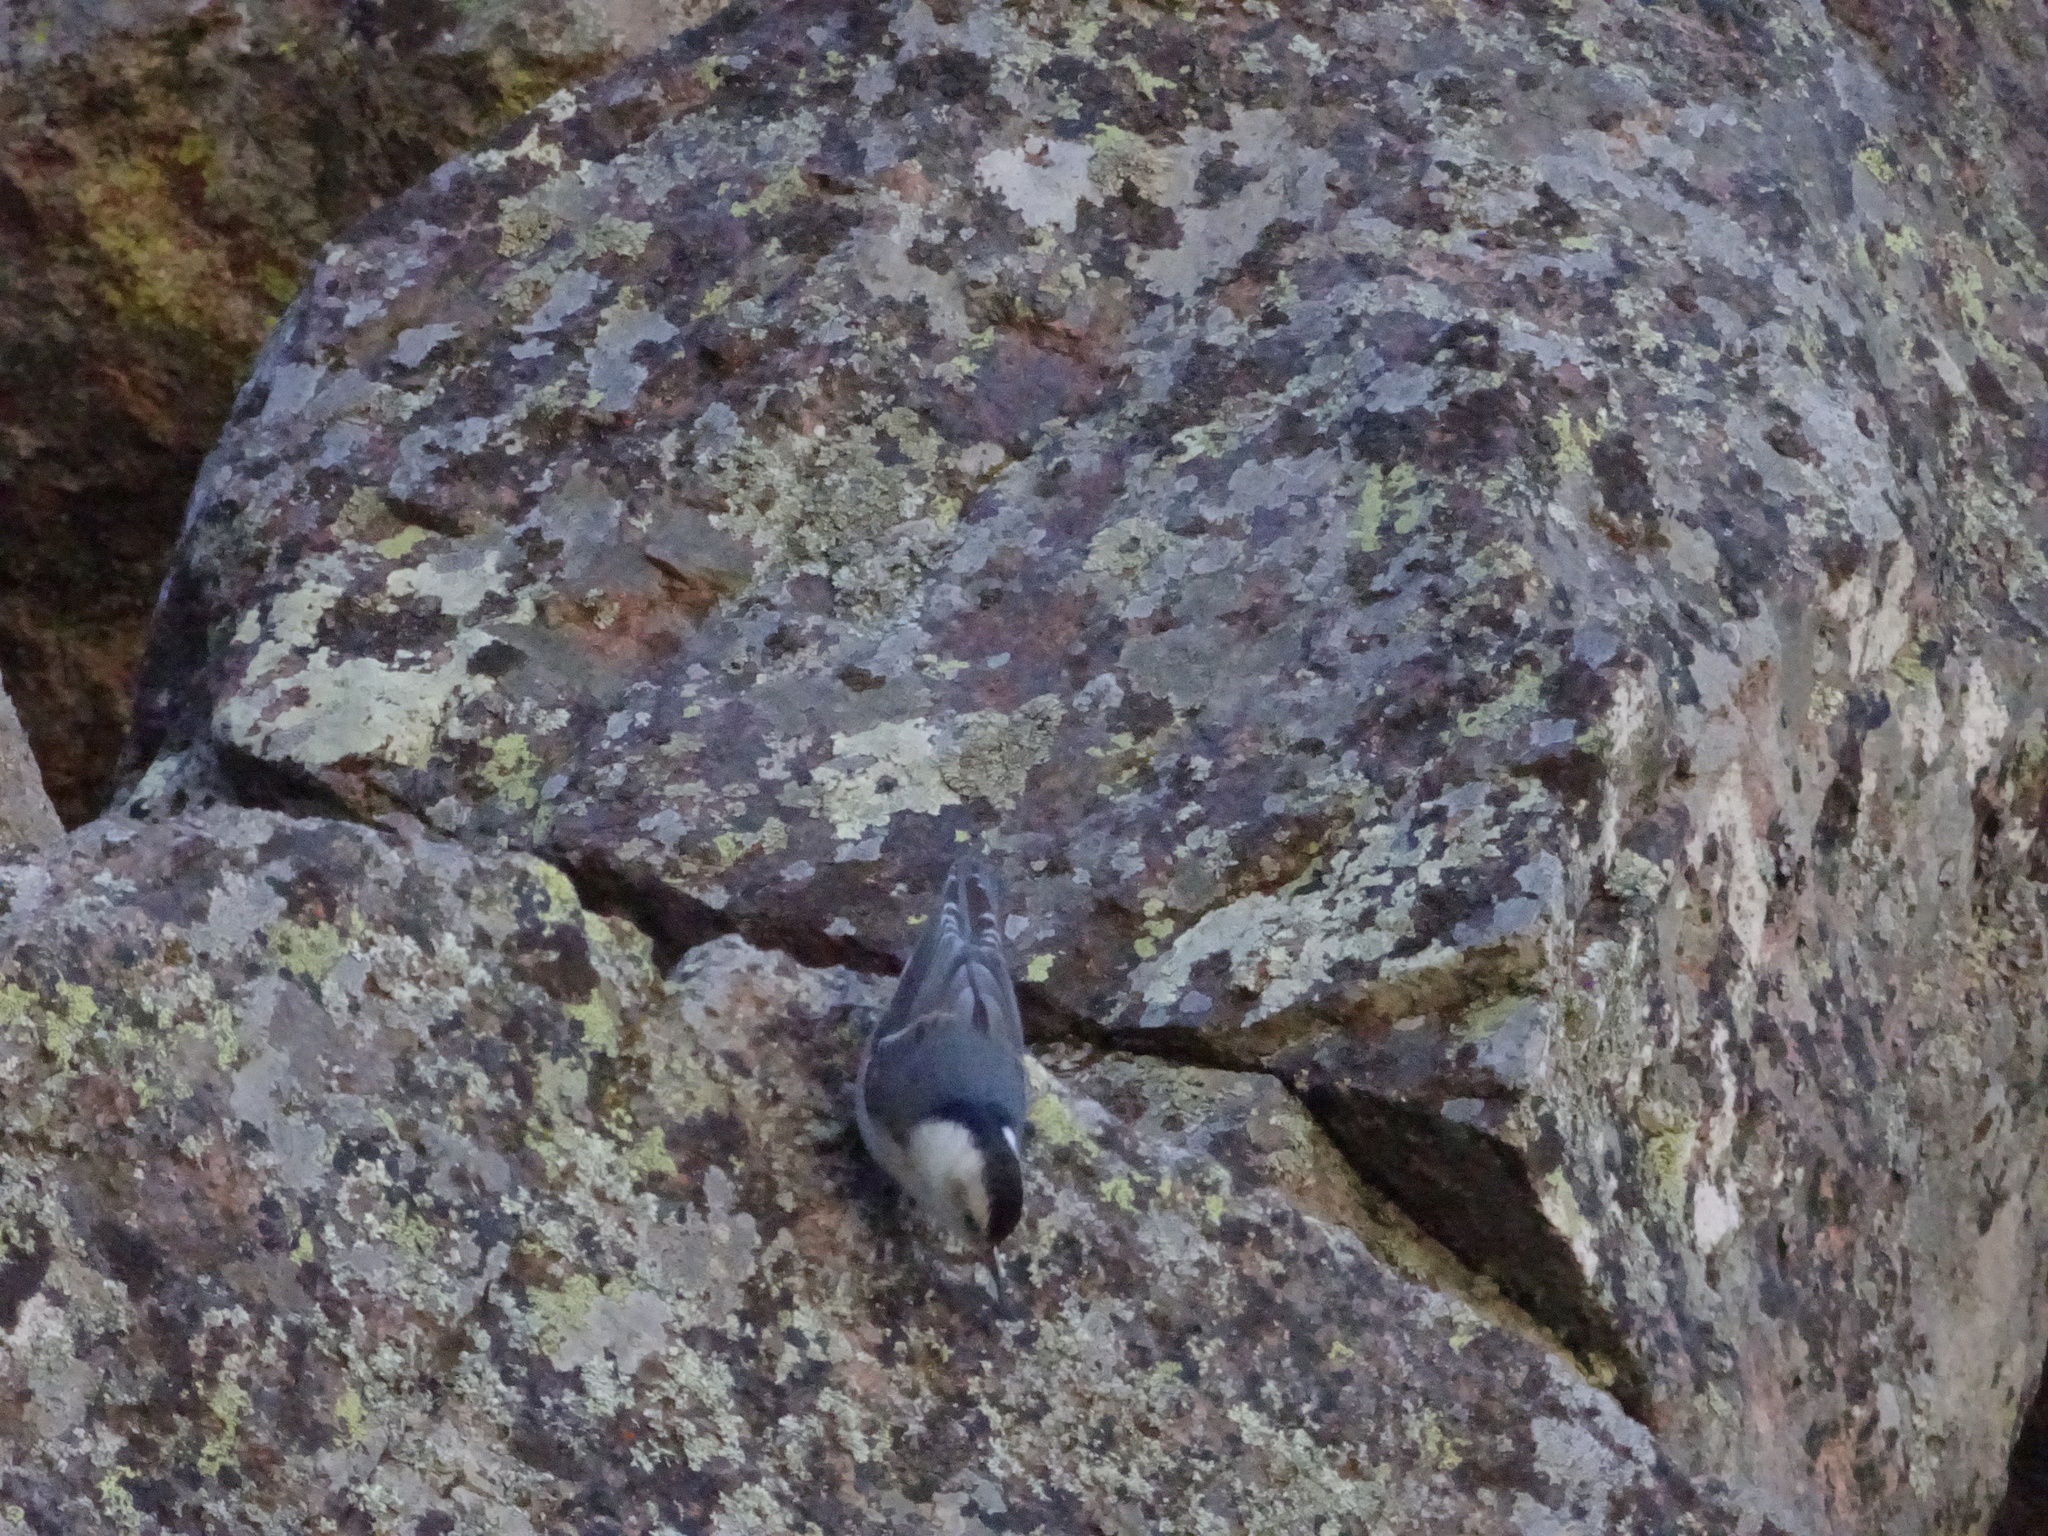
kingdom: Animalia
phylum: Chordata
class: Aves
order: Passeriformes
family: Sittidae
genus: Sitta
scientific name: Sitta carolinensis
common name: White-breasted nuthatch
